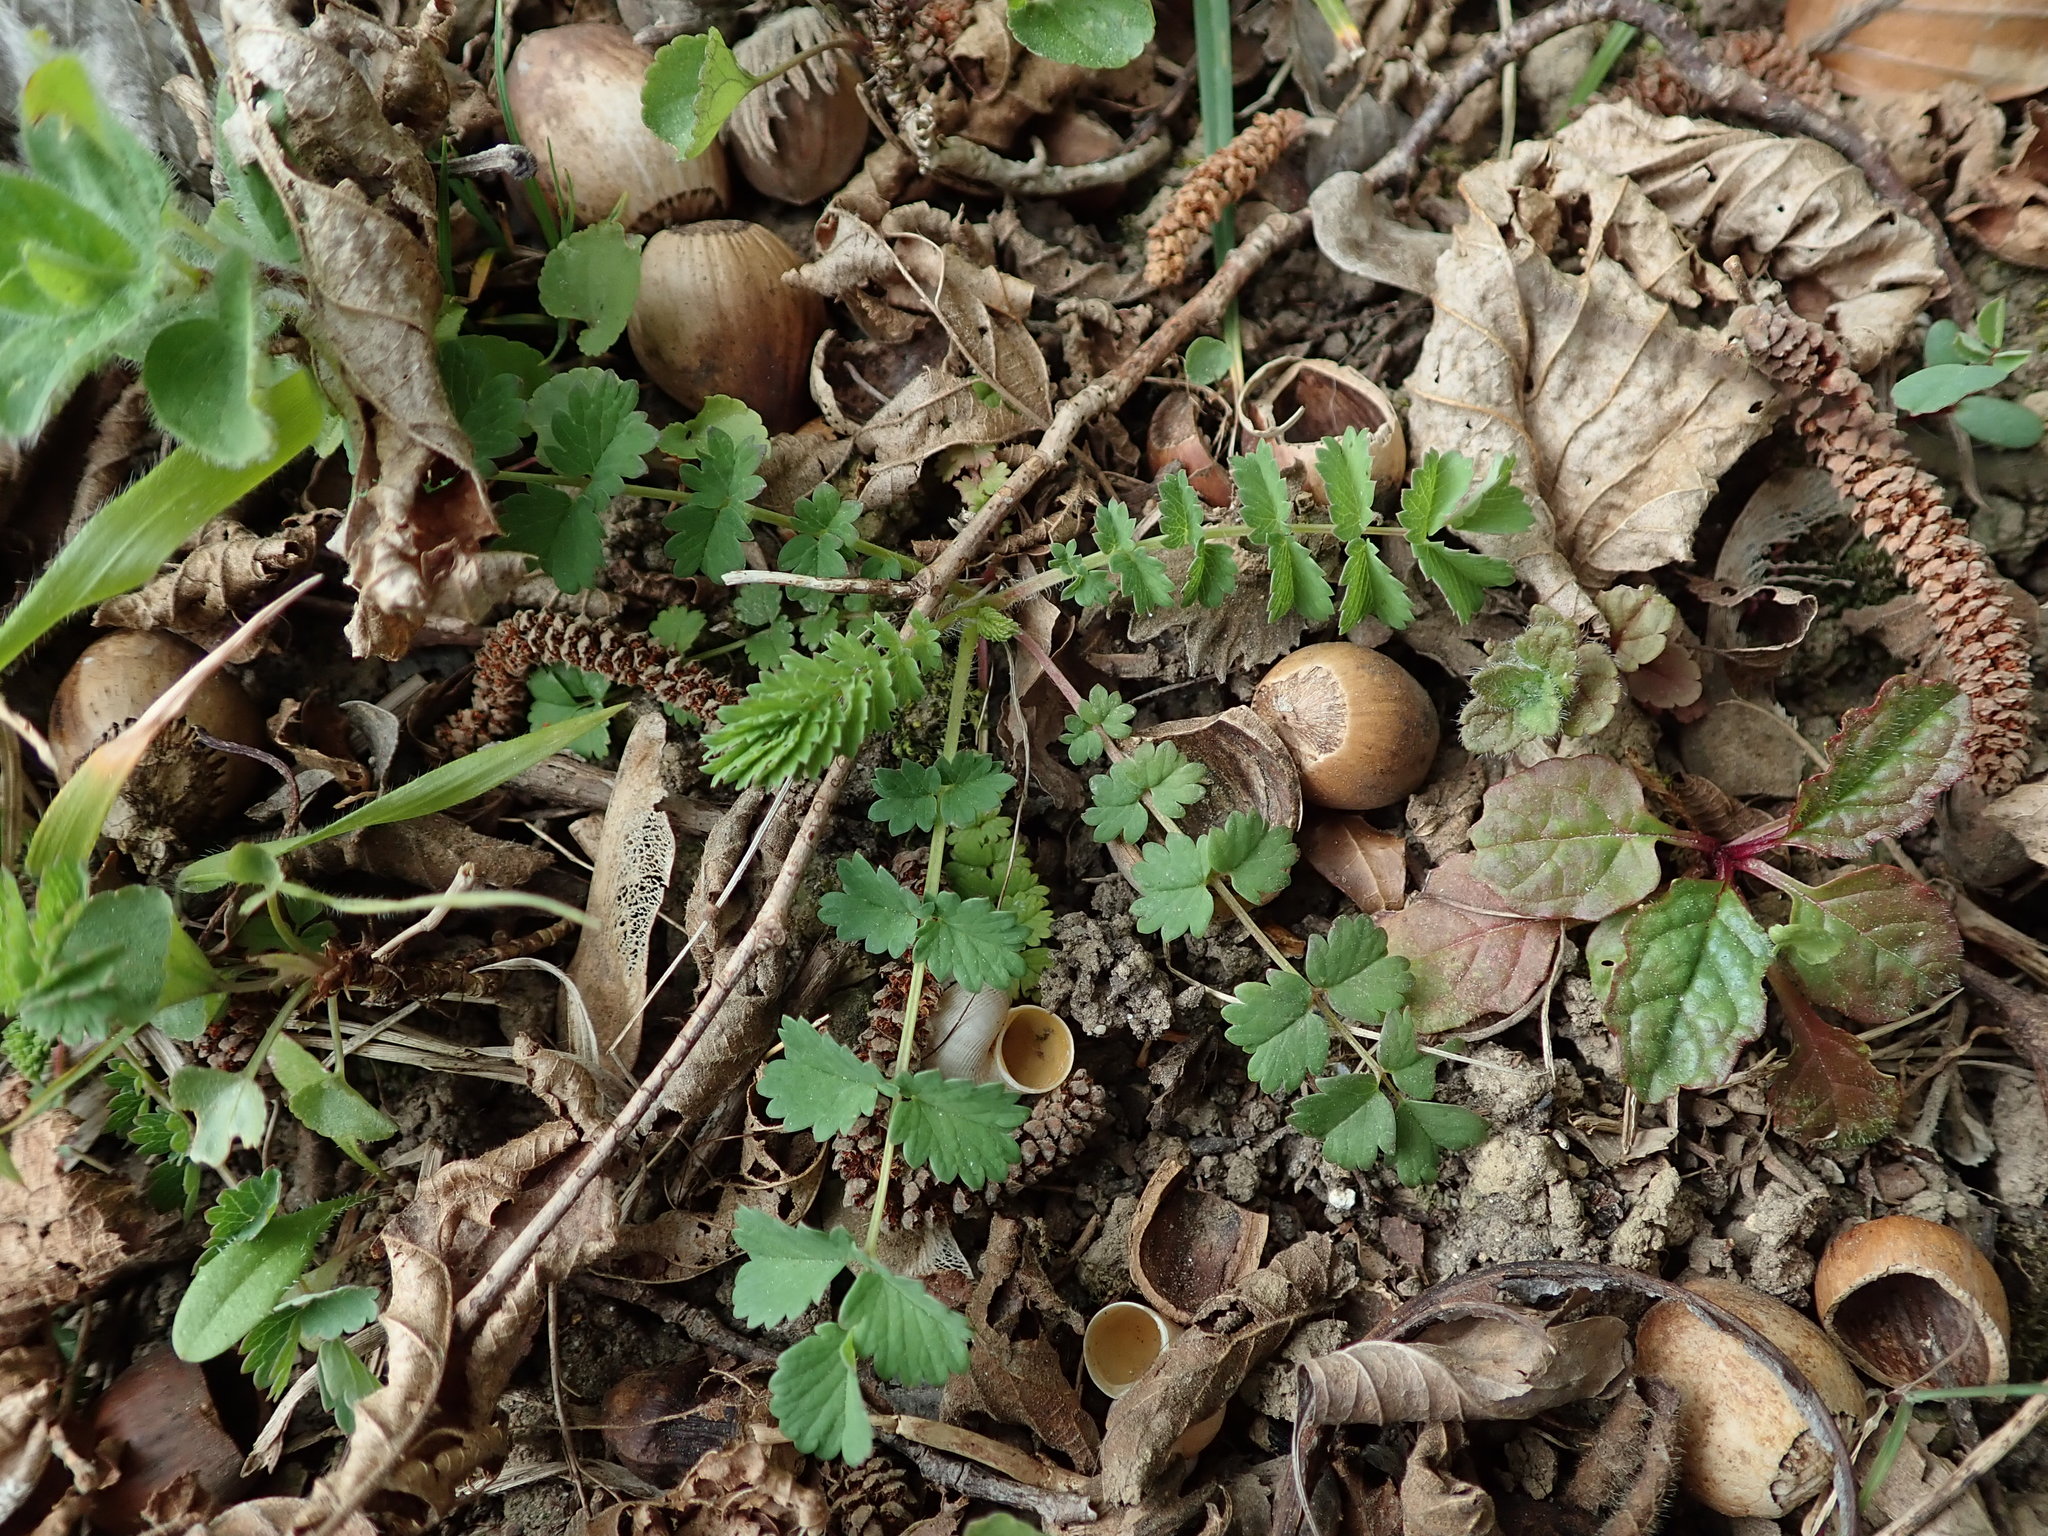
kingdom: Plantae
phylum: Tracheophyta
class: Magnoliopsida
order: Rosales
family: Rosaceae
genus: Poterium
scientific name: Poterium sanguisorba
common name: Salad burnet
